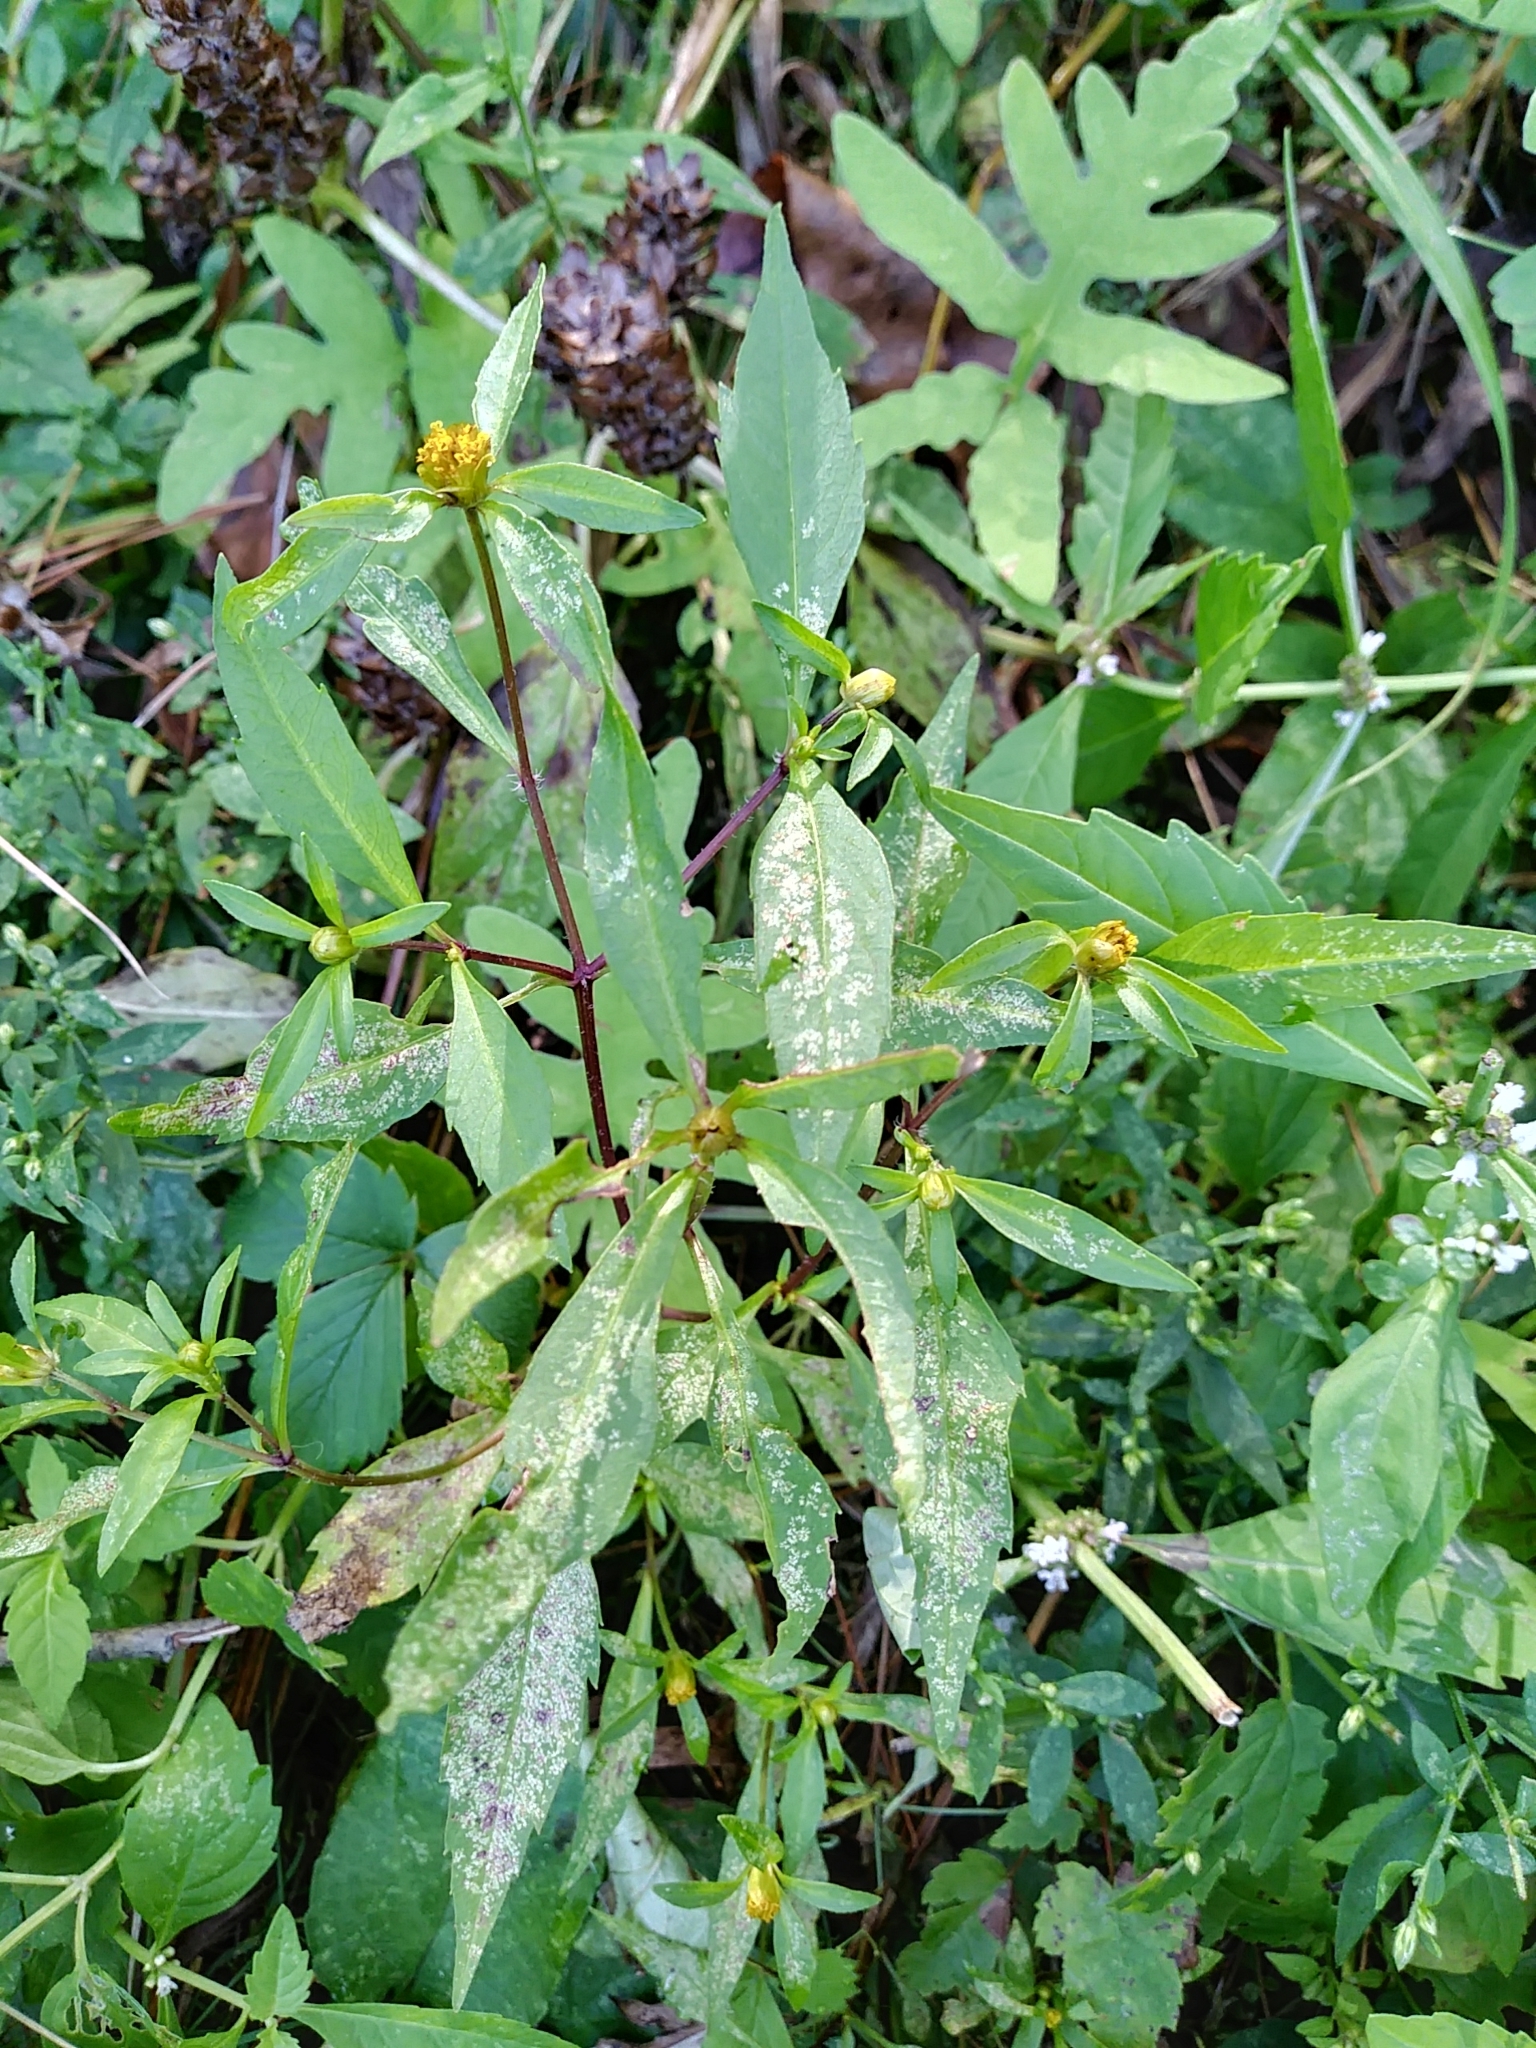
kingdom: Plantae
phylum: Tracheophyta
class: Magnoliopsida
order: Asterales
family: Asteraceae
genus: Bidens
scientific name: Bidens connata
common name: London bur-marigold
